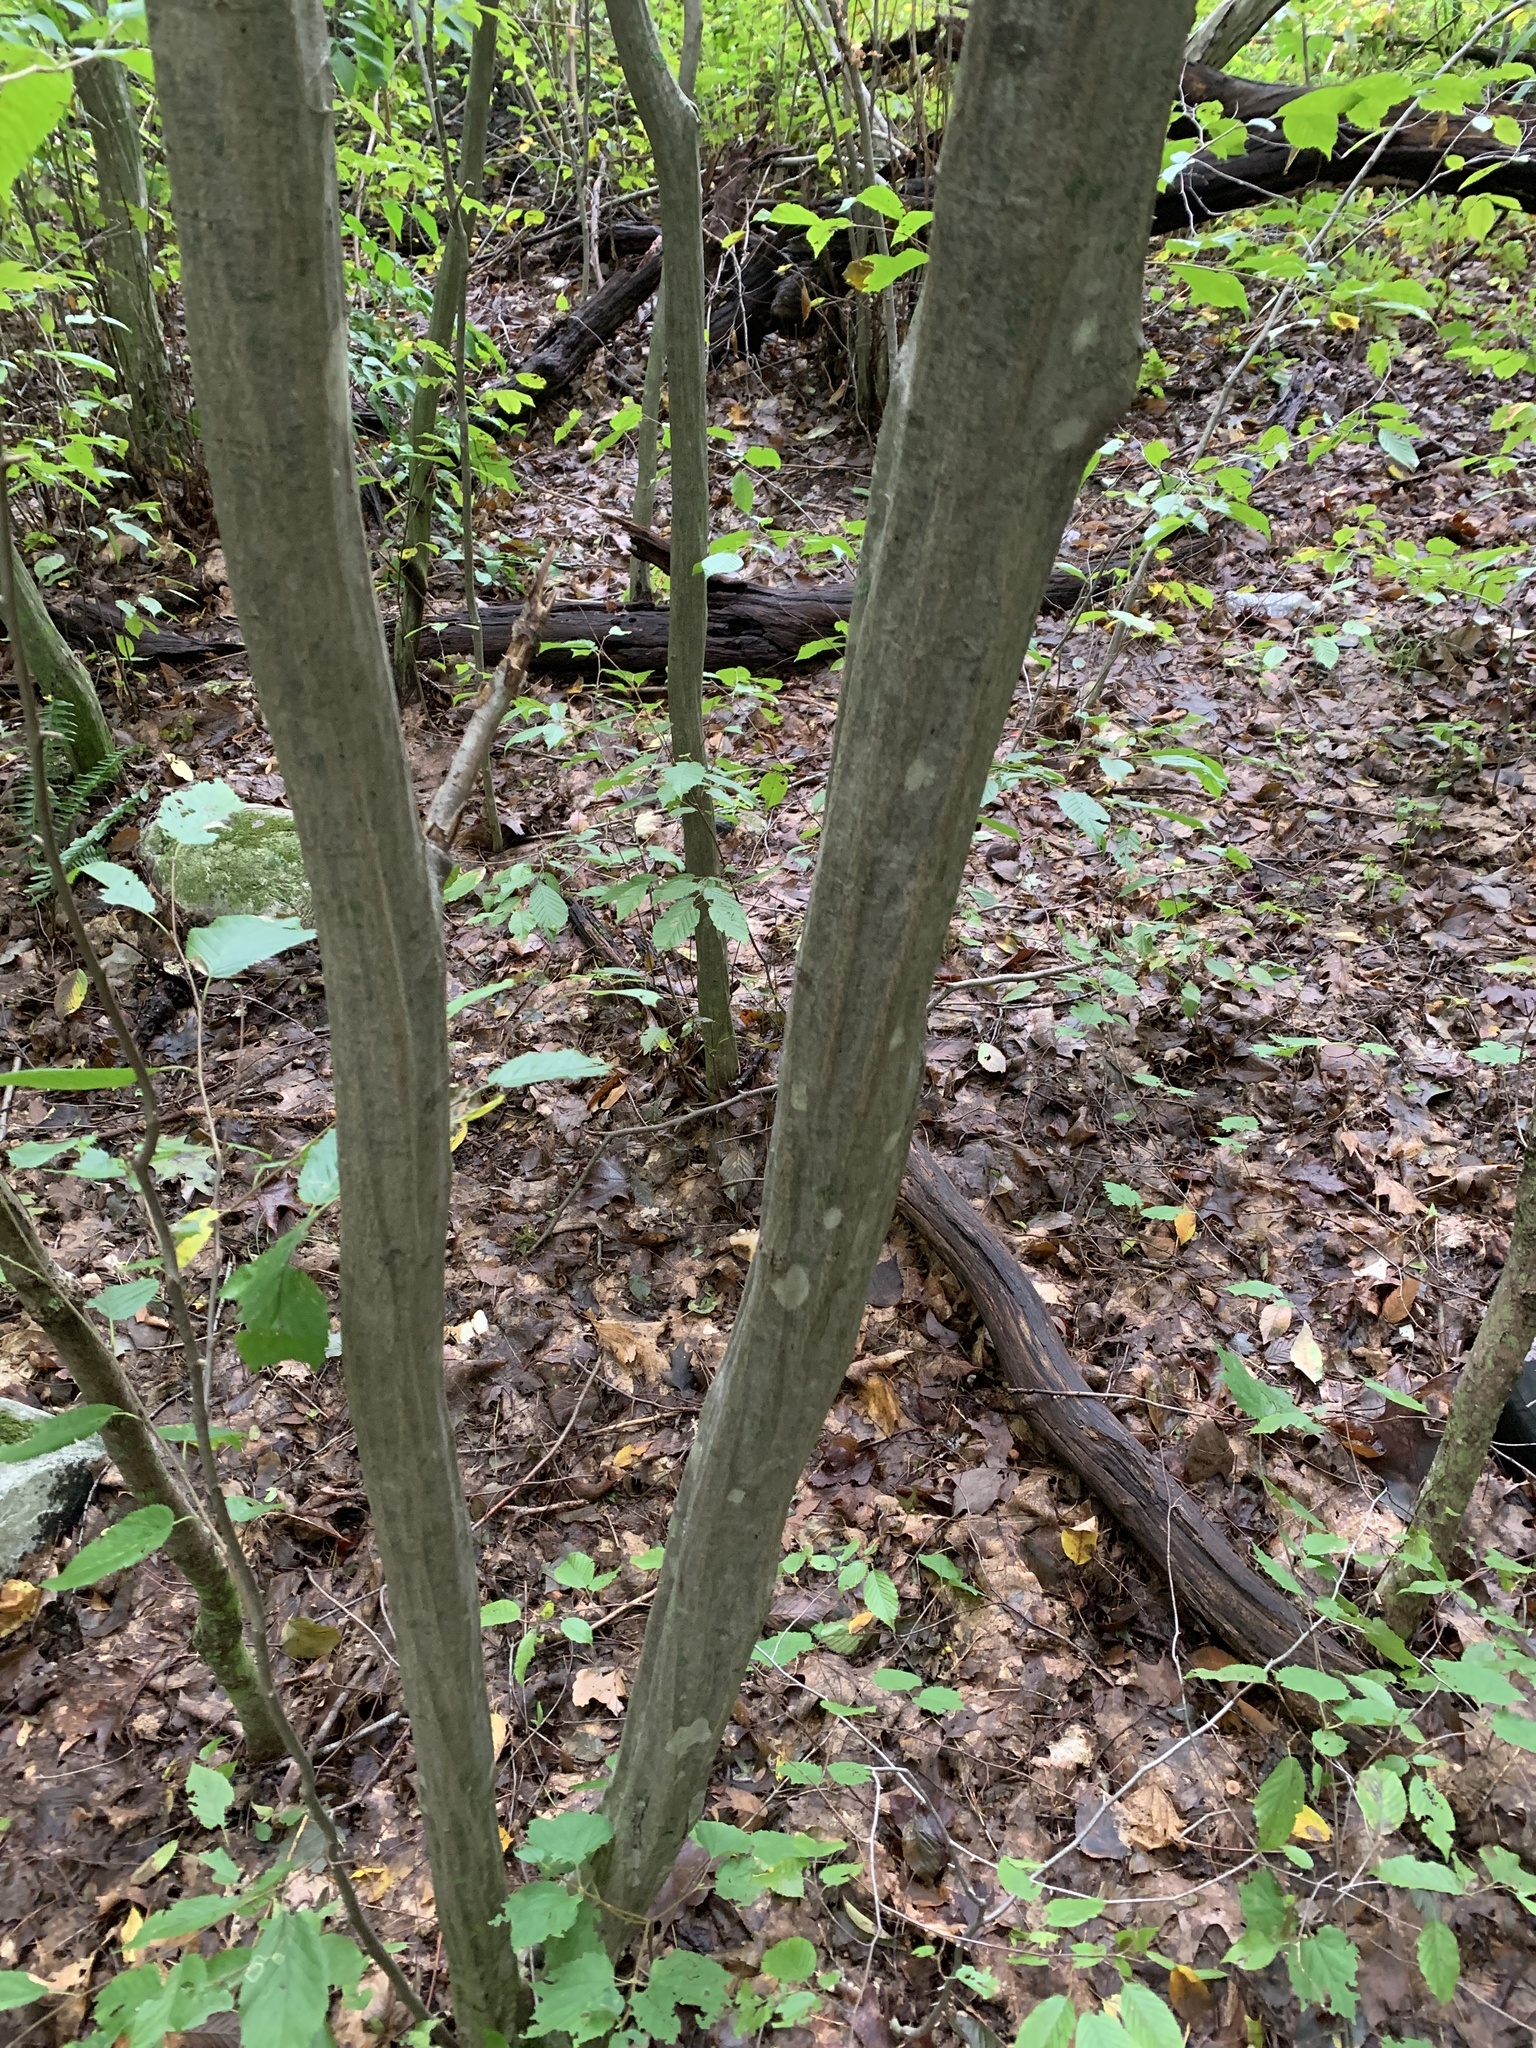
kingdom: Plantae
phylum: Tracheophyta
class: Magnoliopsida
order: Fagales
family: Betulaceae
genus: Carpinus
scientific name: Carpinus caroliniana
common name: American hornbeam
